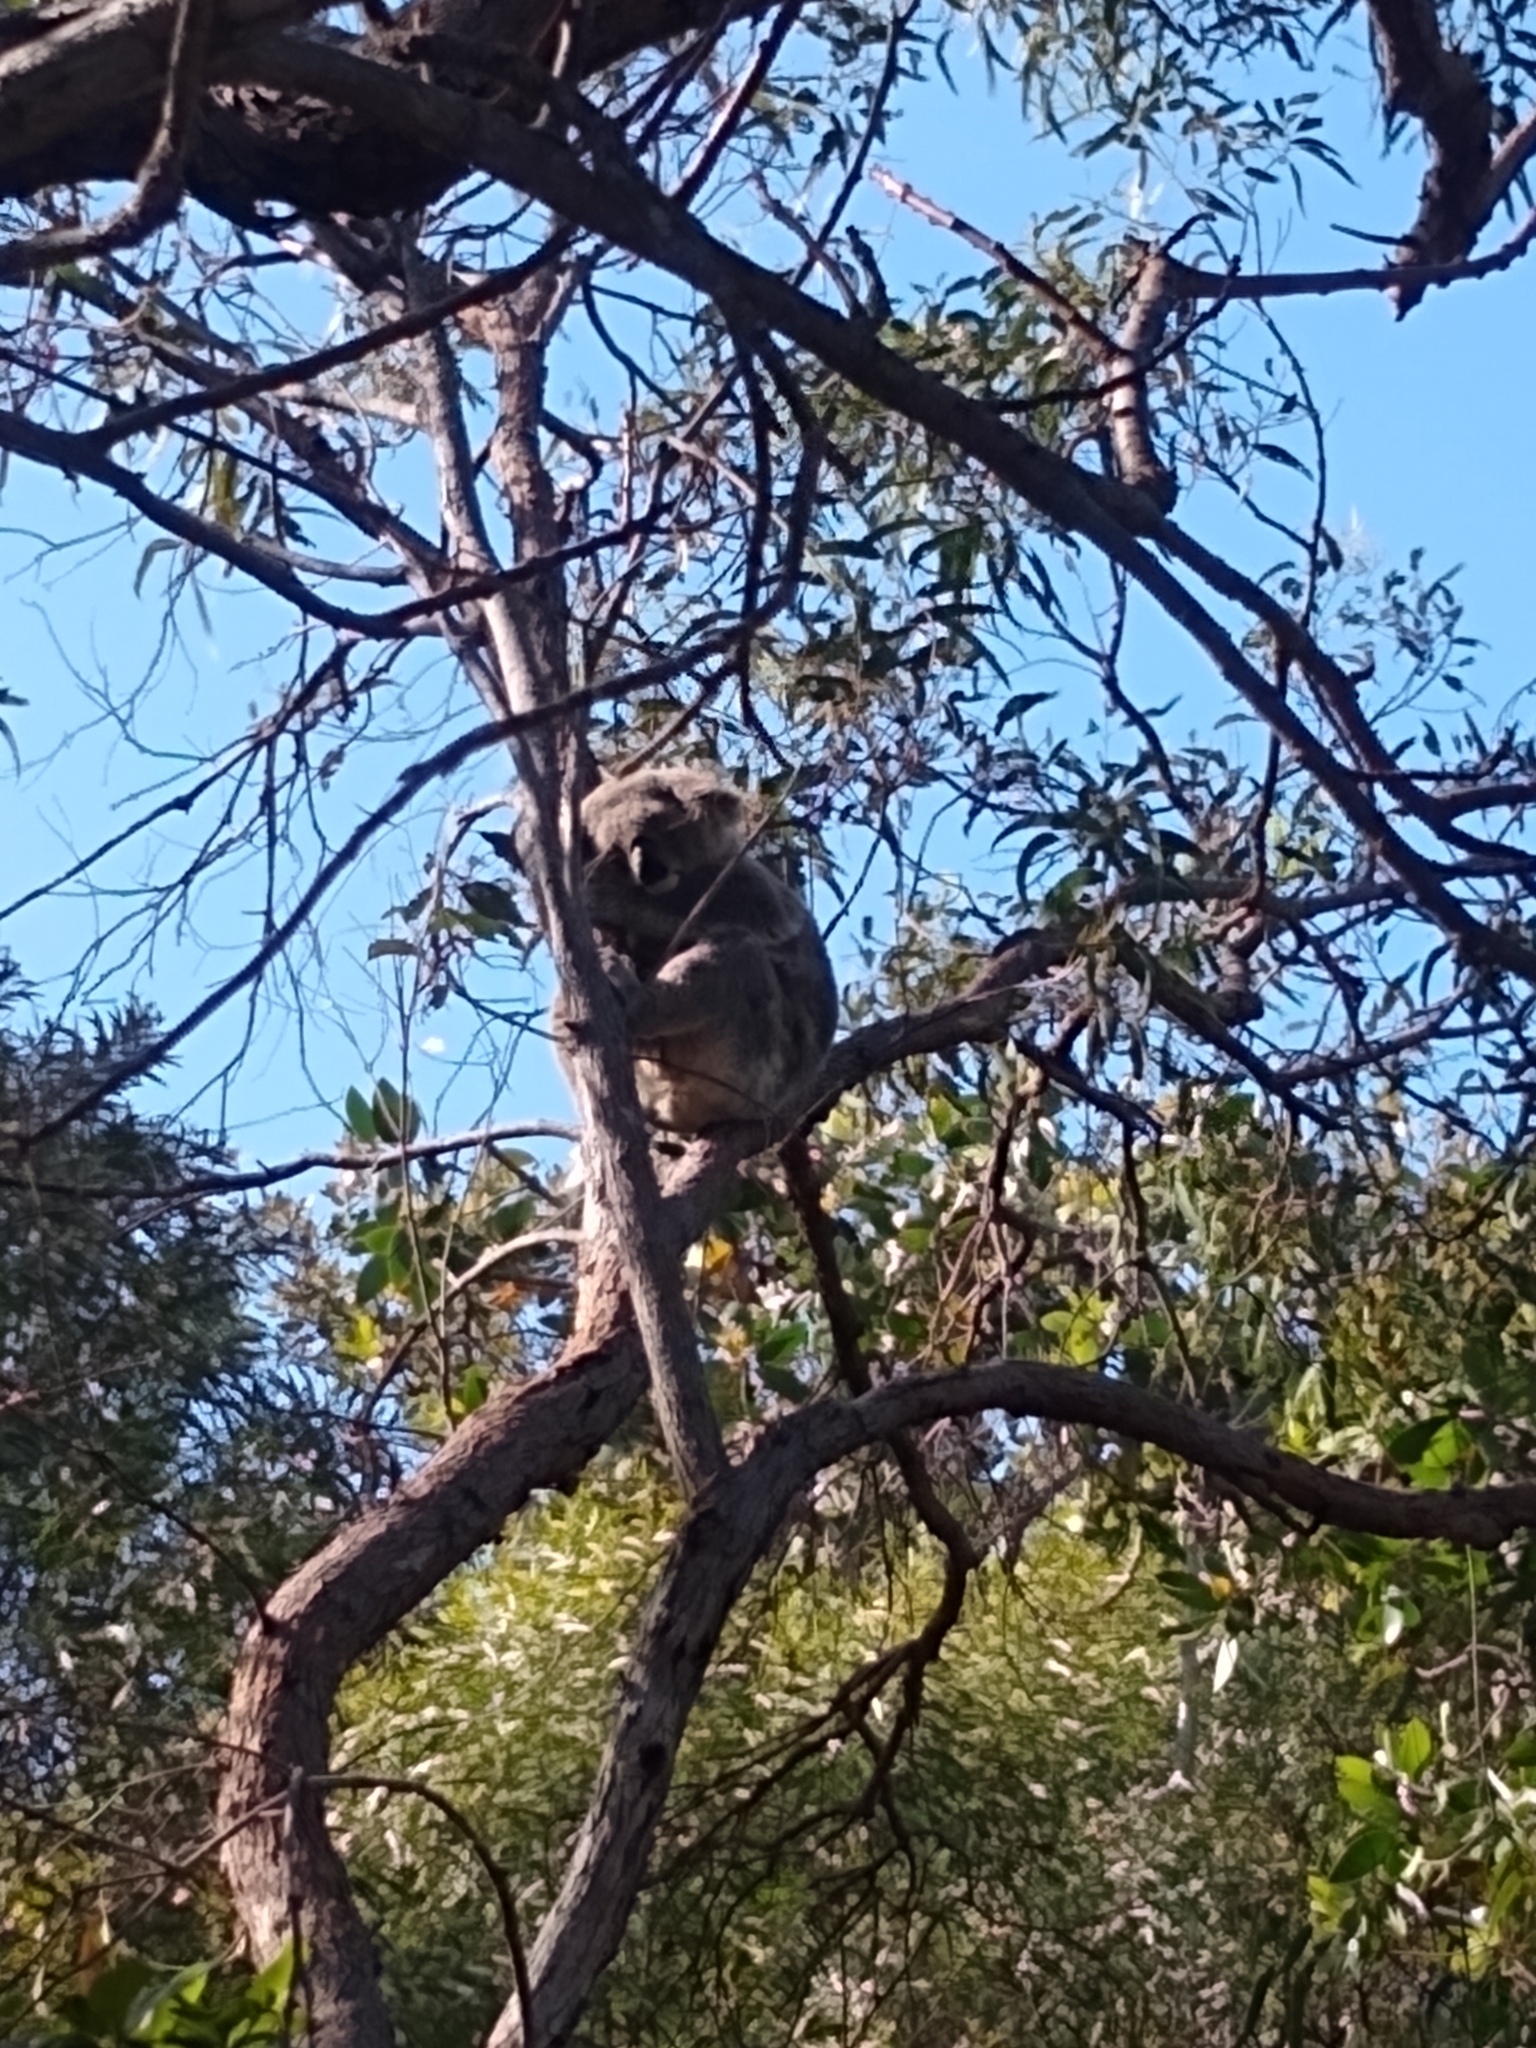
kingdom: Animalia
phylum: Chordata
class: Mammalia
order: Diprotodontia
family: Phascolarctidae
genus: Phascolarctos
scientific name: Phascolarctos cinereus
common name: Koala
